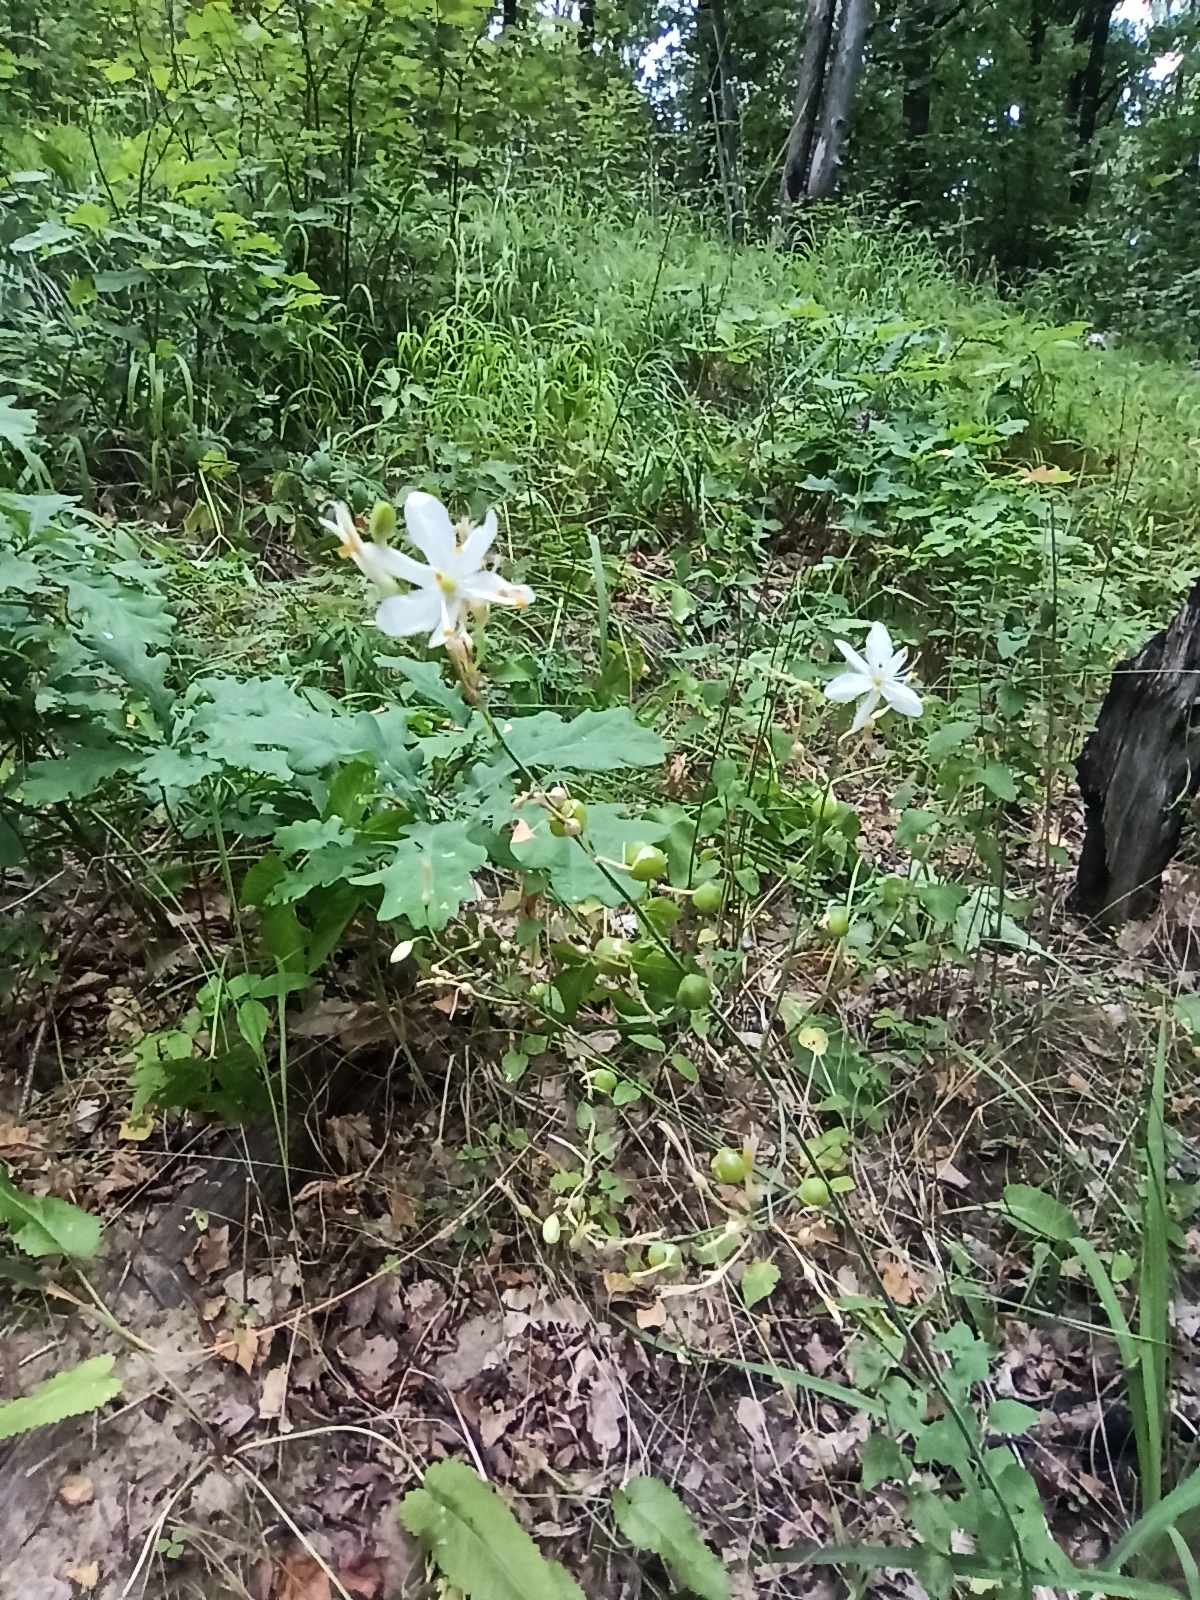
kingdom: Plantae
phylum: Tracheophyta
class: Liliopsida
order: Asparagales
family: Asparagaceae
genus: Anthericum
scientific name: Anthericum ramosum
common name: Branched st. bernard's-lily
